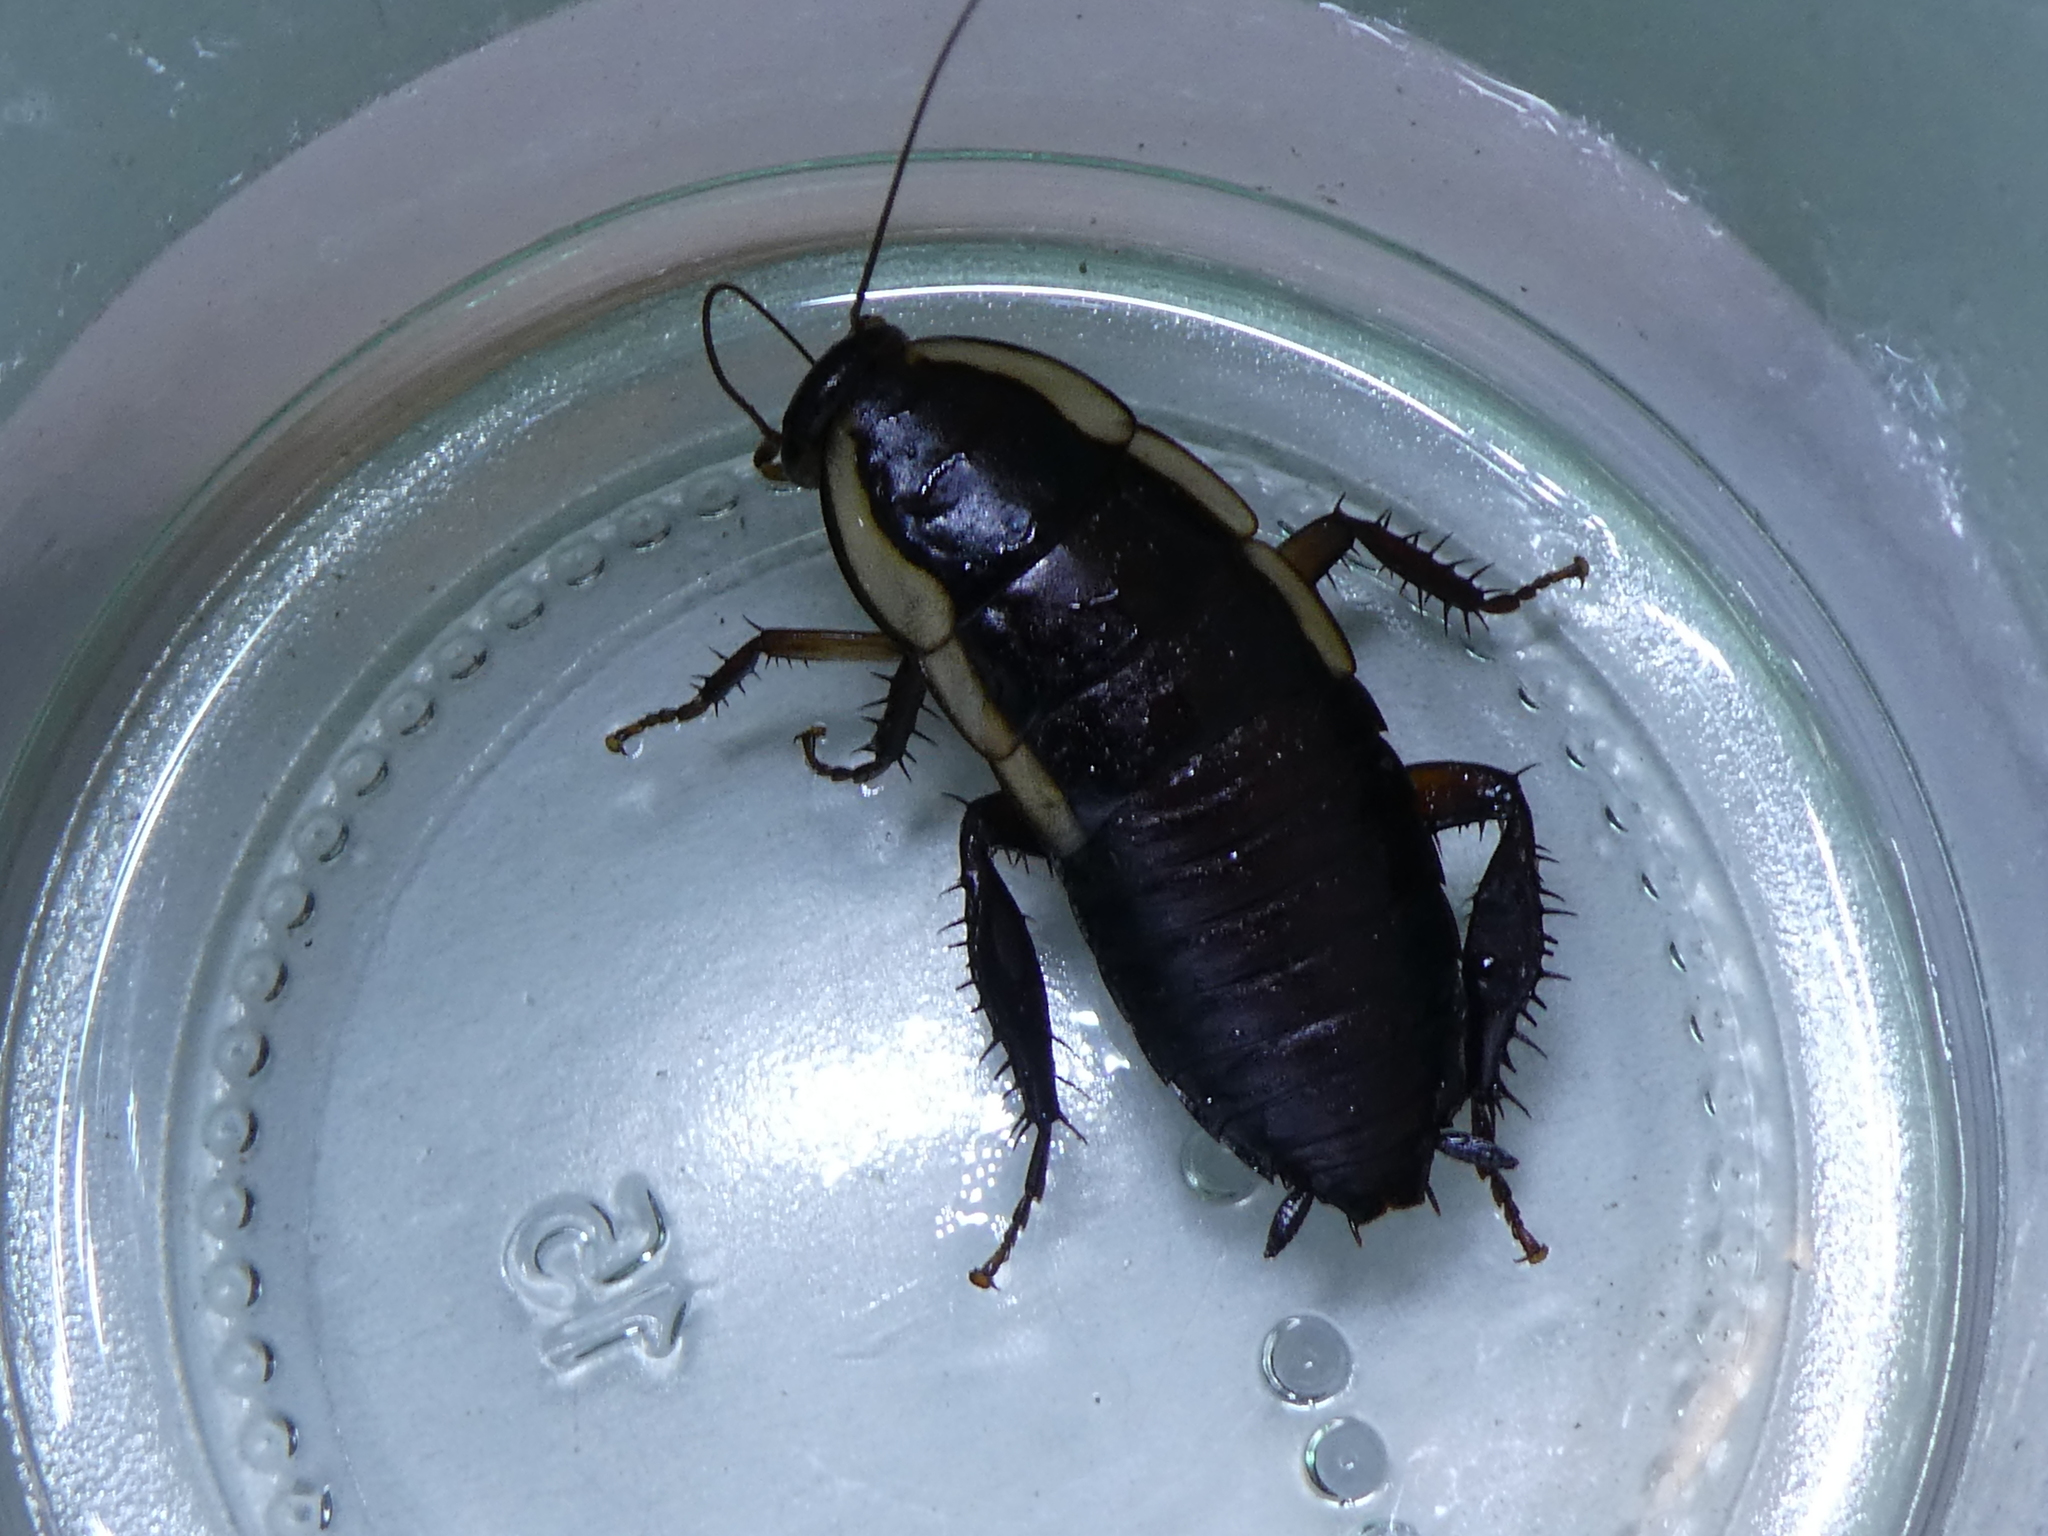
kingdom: Animalia
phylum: Arthropoda
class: Insecta
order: Blattodea
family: Blattidae
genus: Drymaplaneta
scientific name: Drymaplaneta semivitta
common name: Gisborne cockroach
